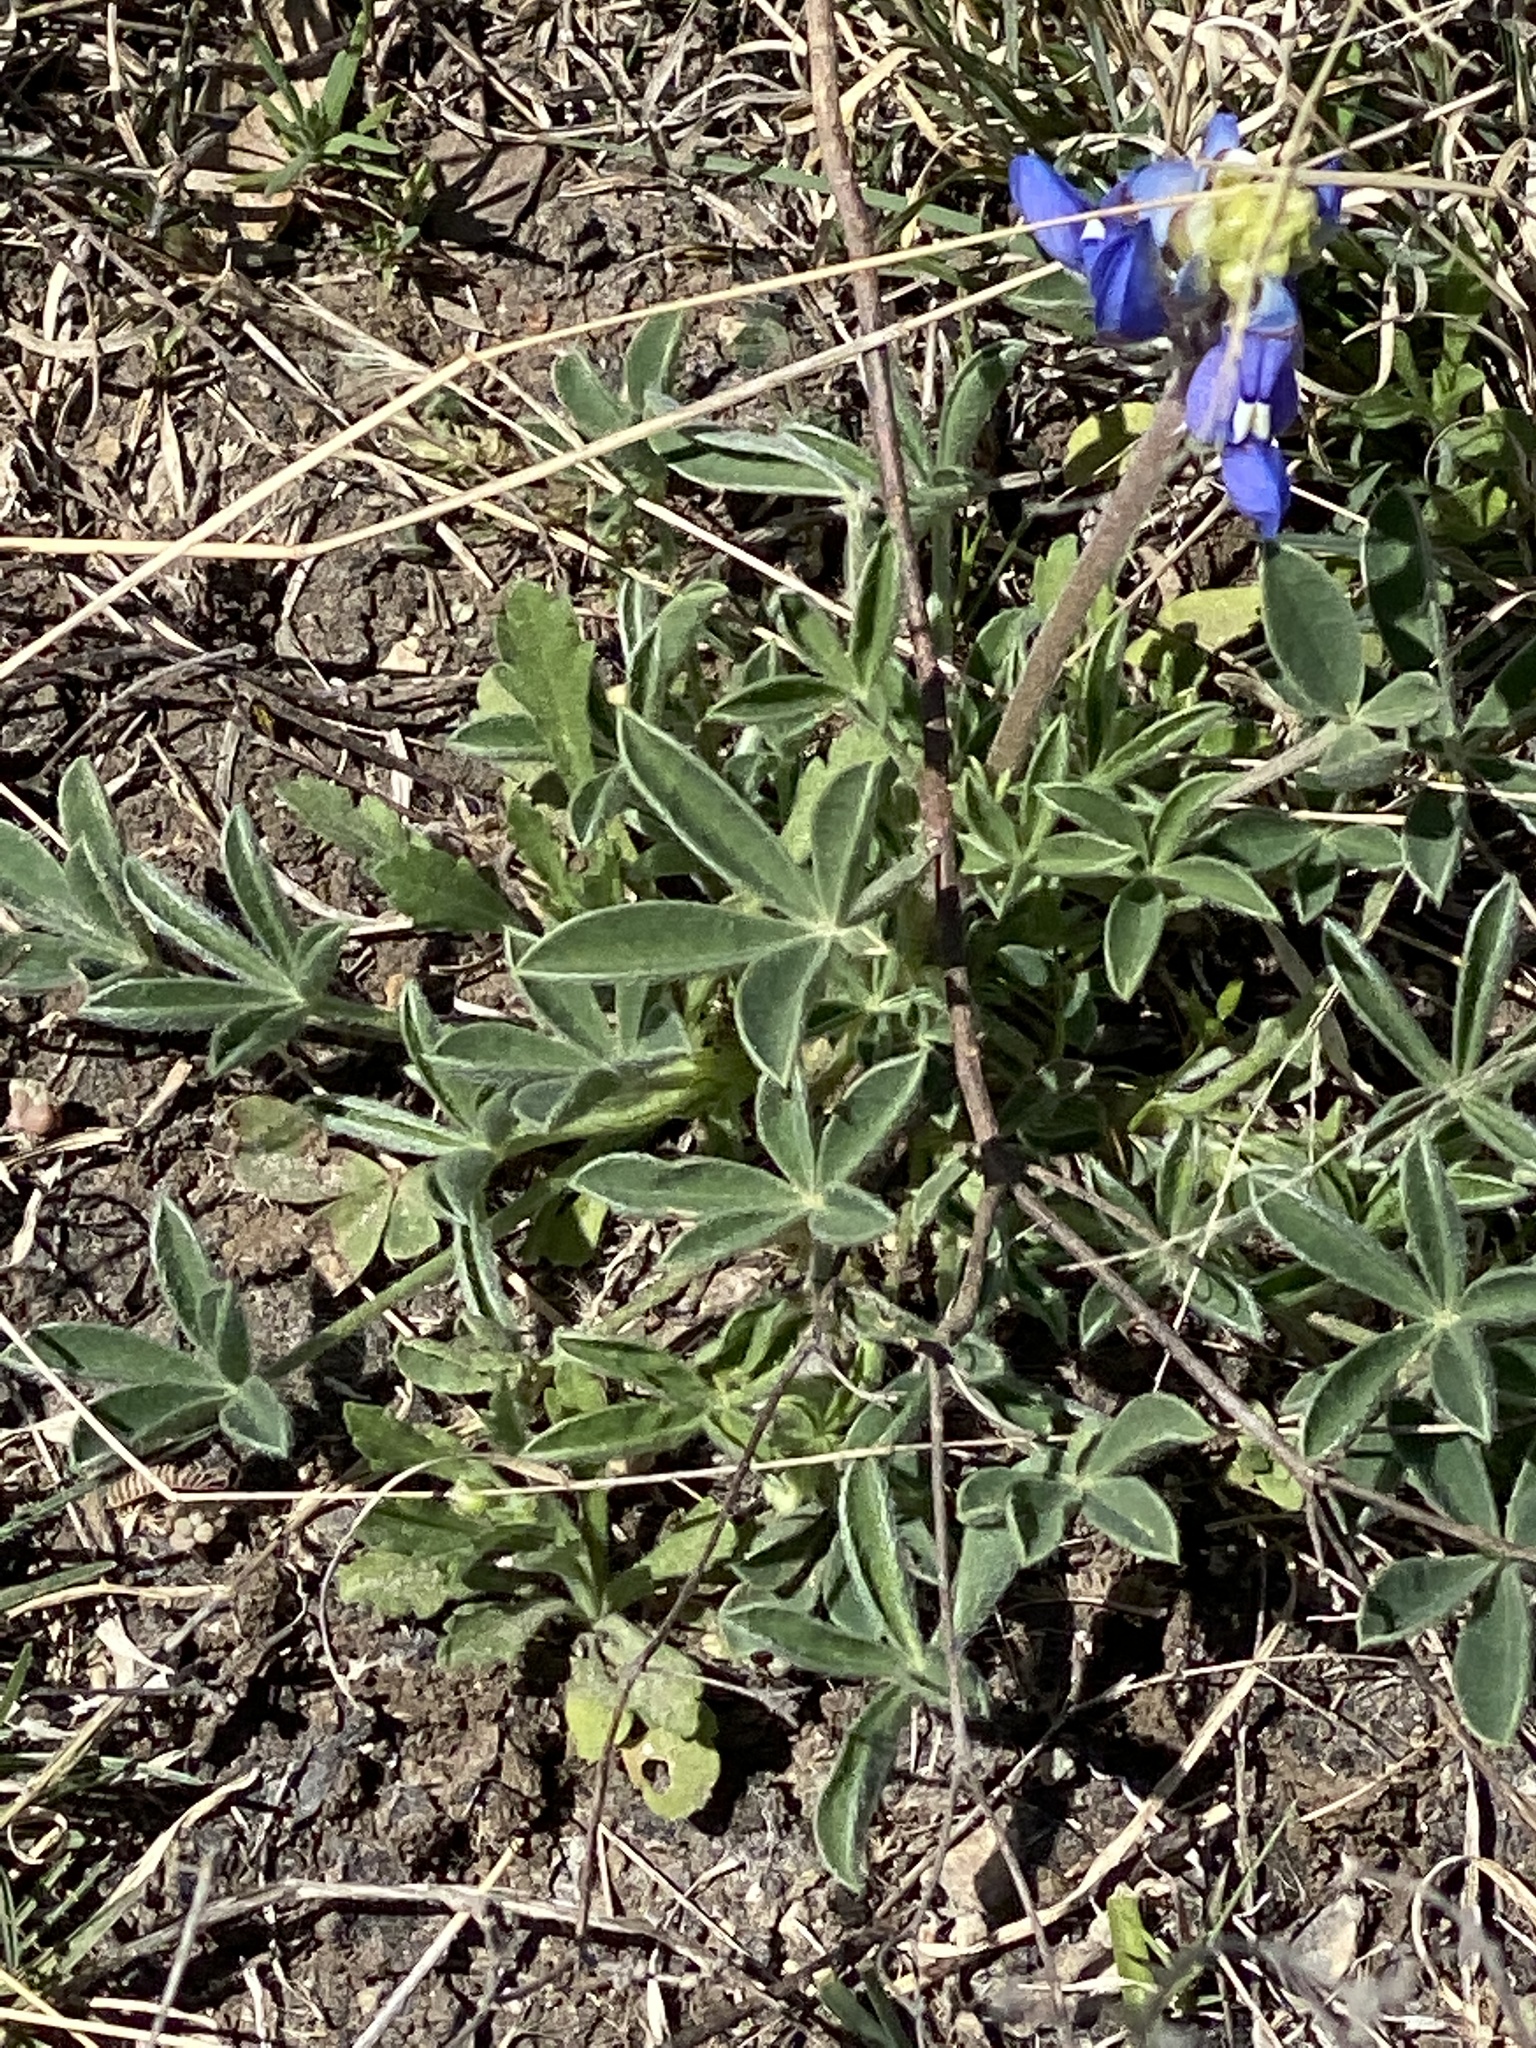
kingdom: Plantae
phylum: Tracheophyta
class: Magnoliopsida
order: Fabales
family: Fabaceae
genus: Lupinus
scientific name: Lupinus texensis
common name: Texas bluebonnet
